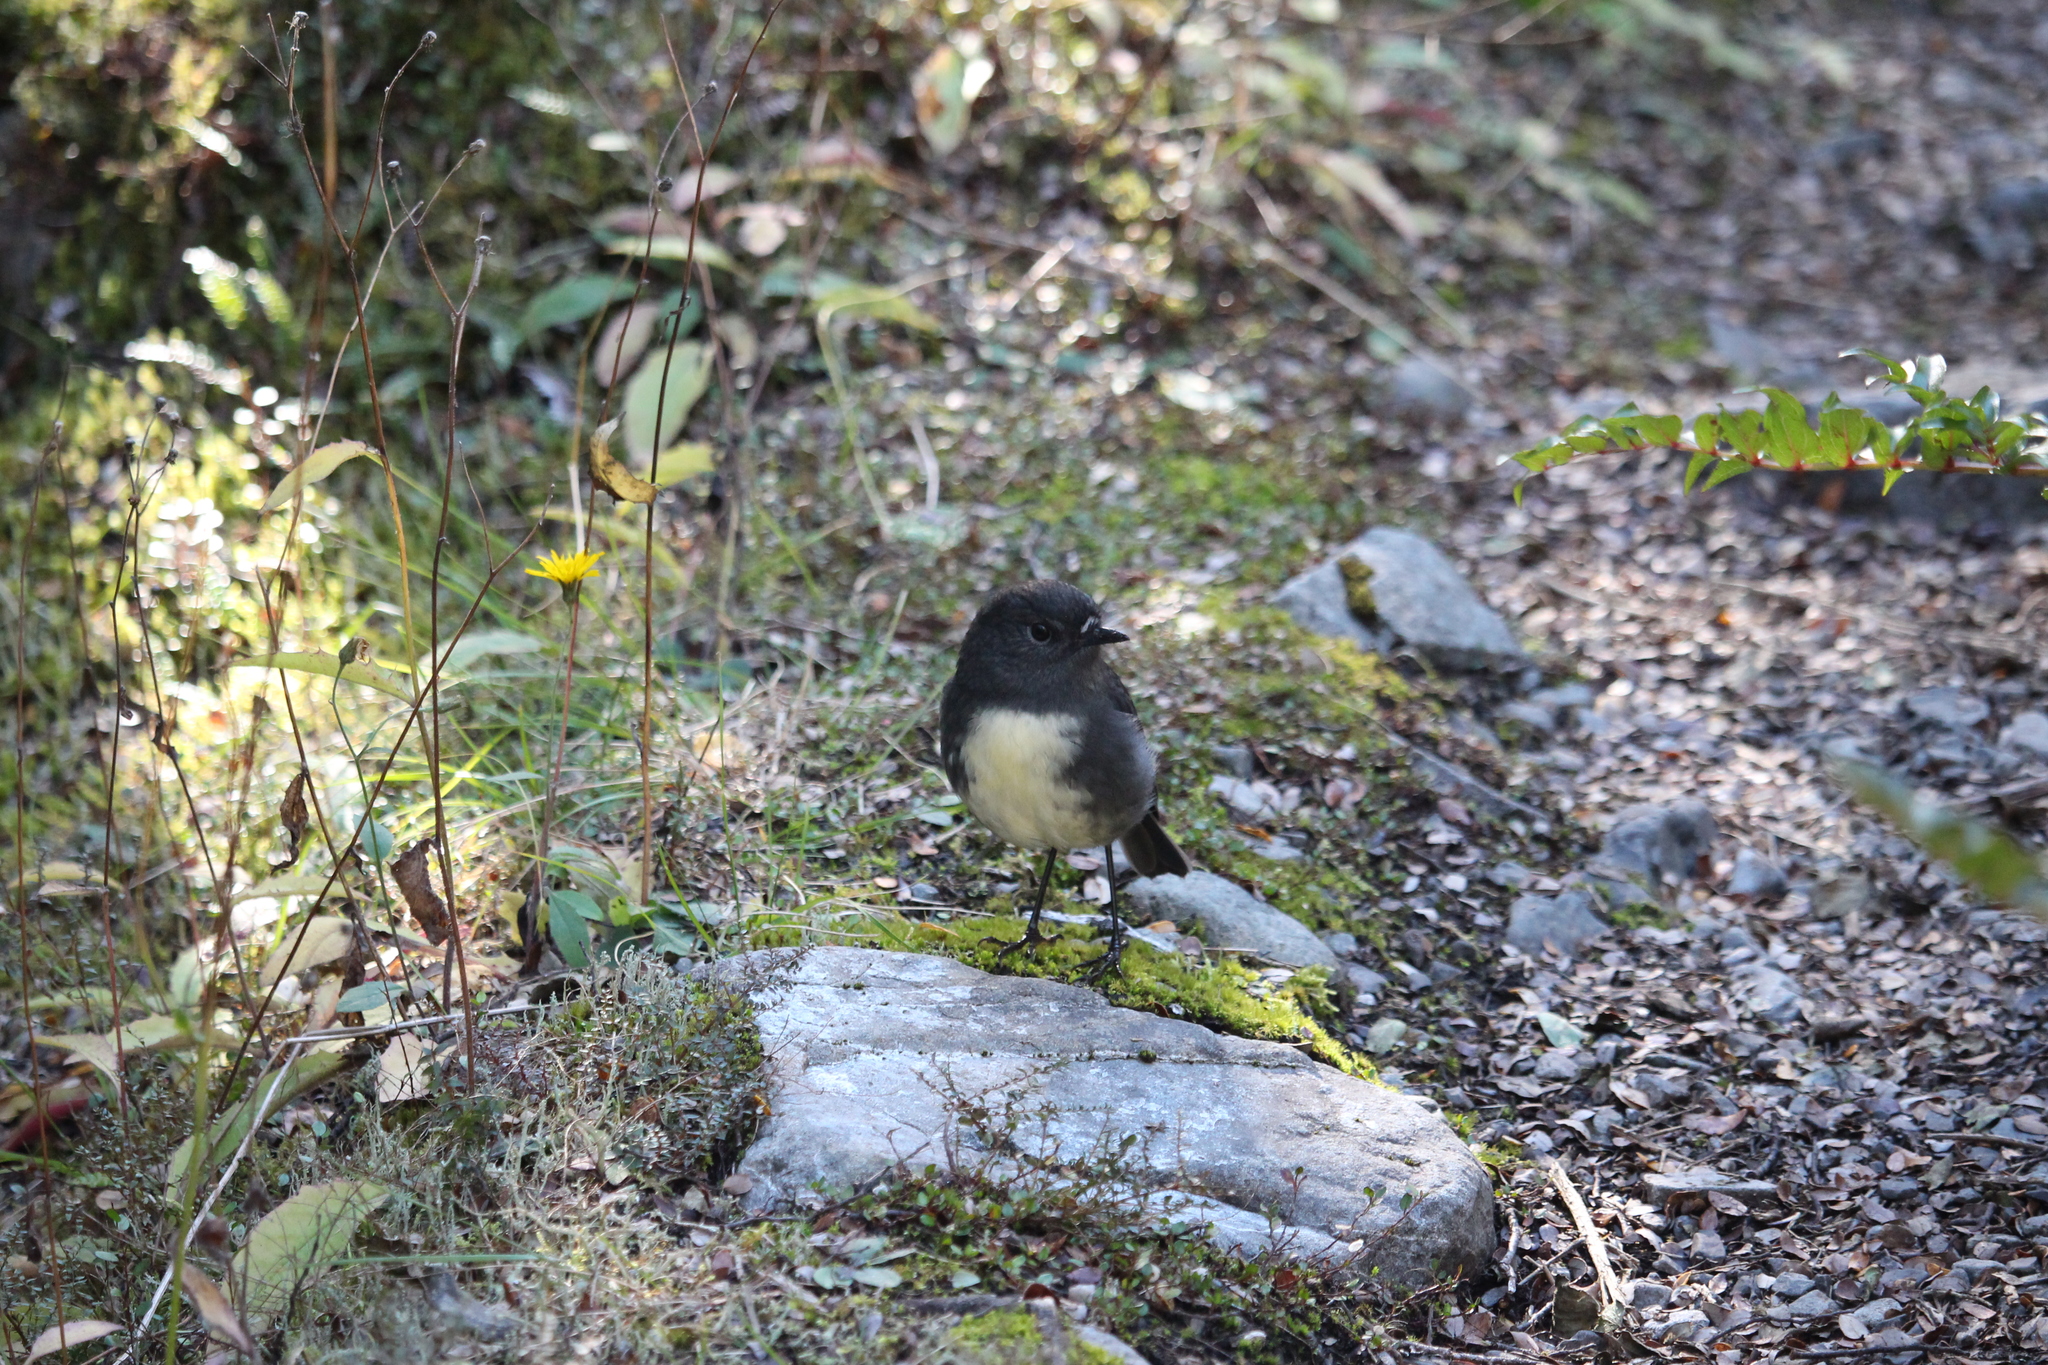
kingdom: Animalia
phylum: Chordata
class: Aves
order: Passeriformes
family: Petroicidae
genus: Petroica
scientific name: Petroica australis
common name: New zealand robin
